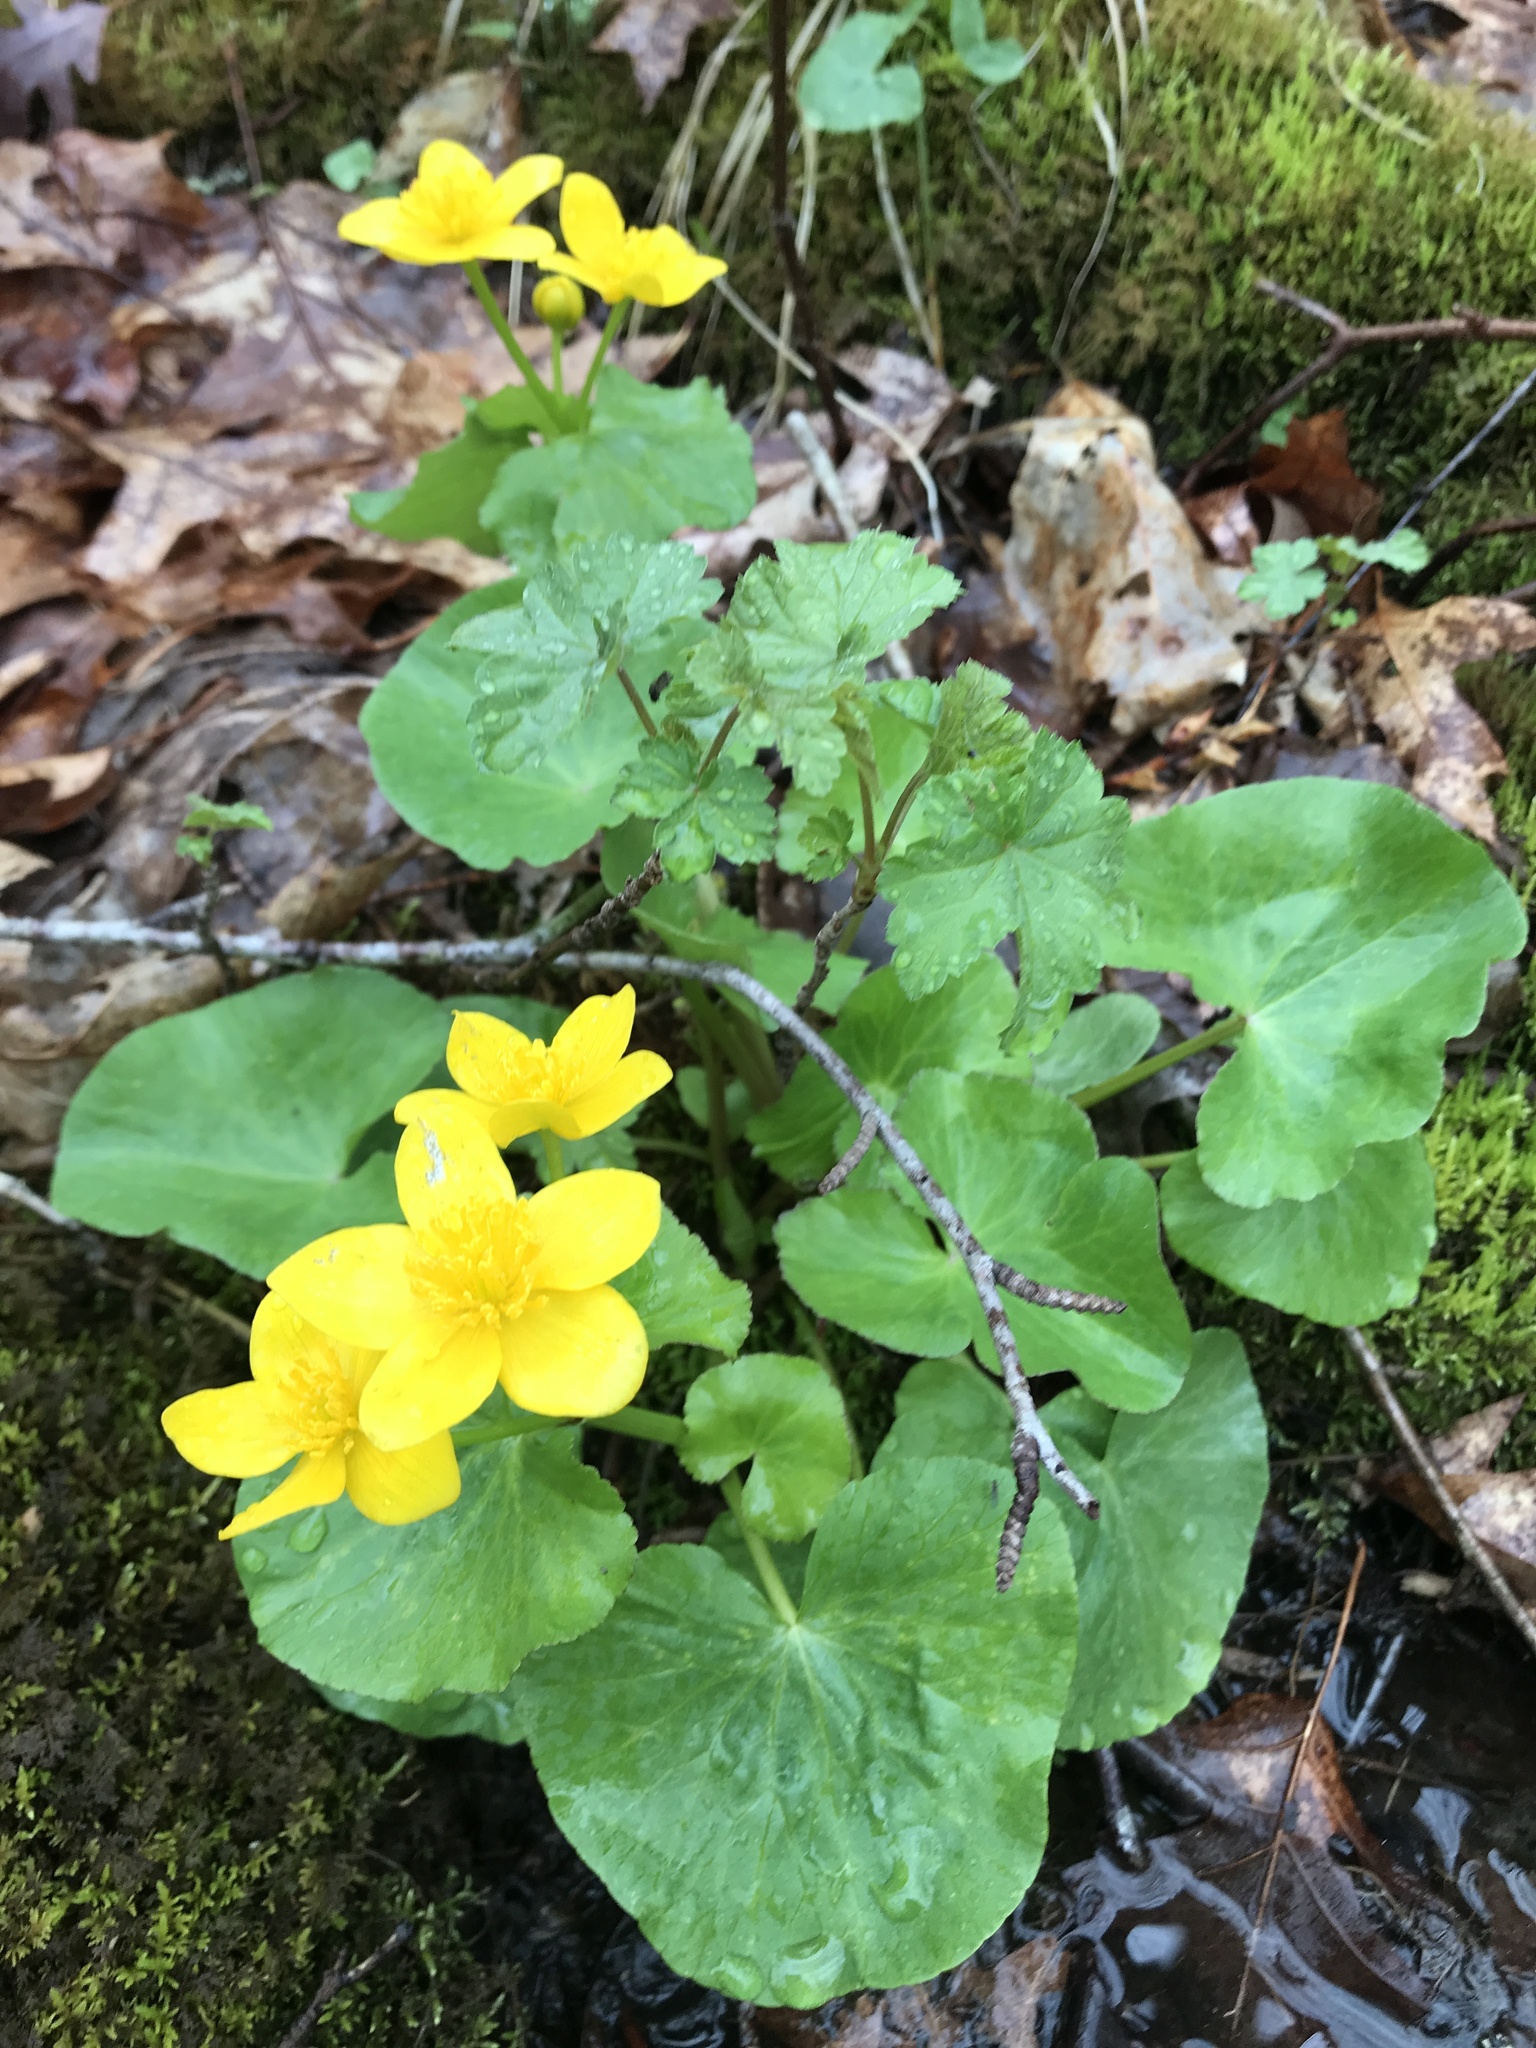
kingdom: Plantae
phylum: Tracheophyta
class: Magnoliopsida
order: Ranunculales
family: Ranunculaceae
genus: Caltha
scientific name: Caltha palustris
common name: Marsh marigold
